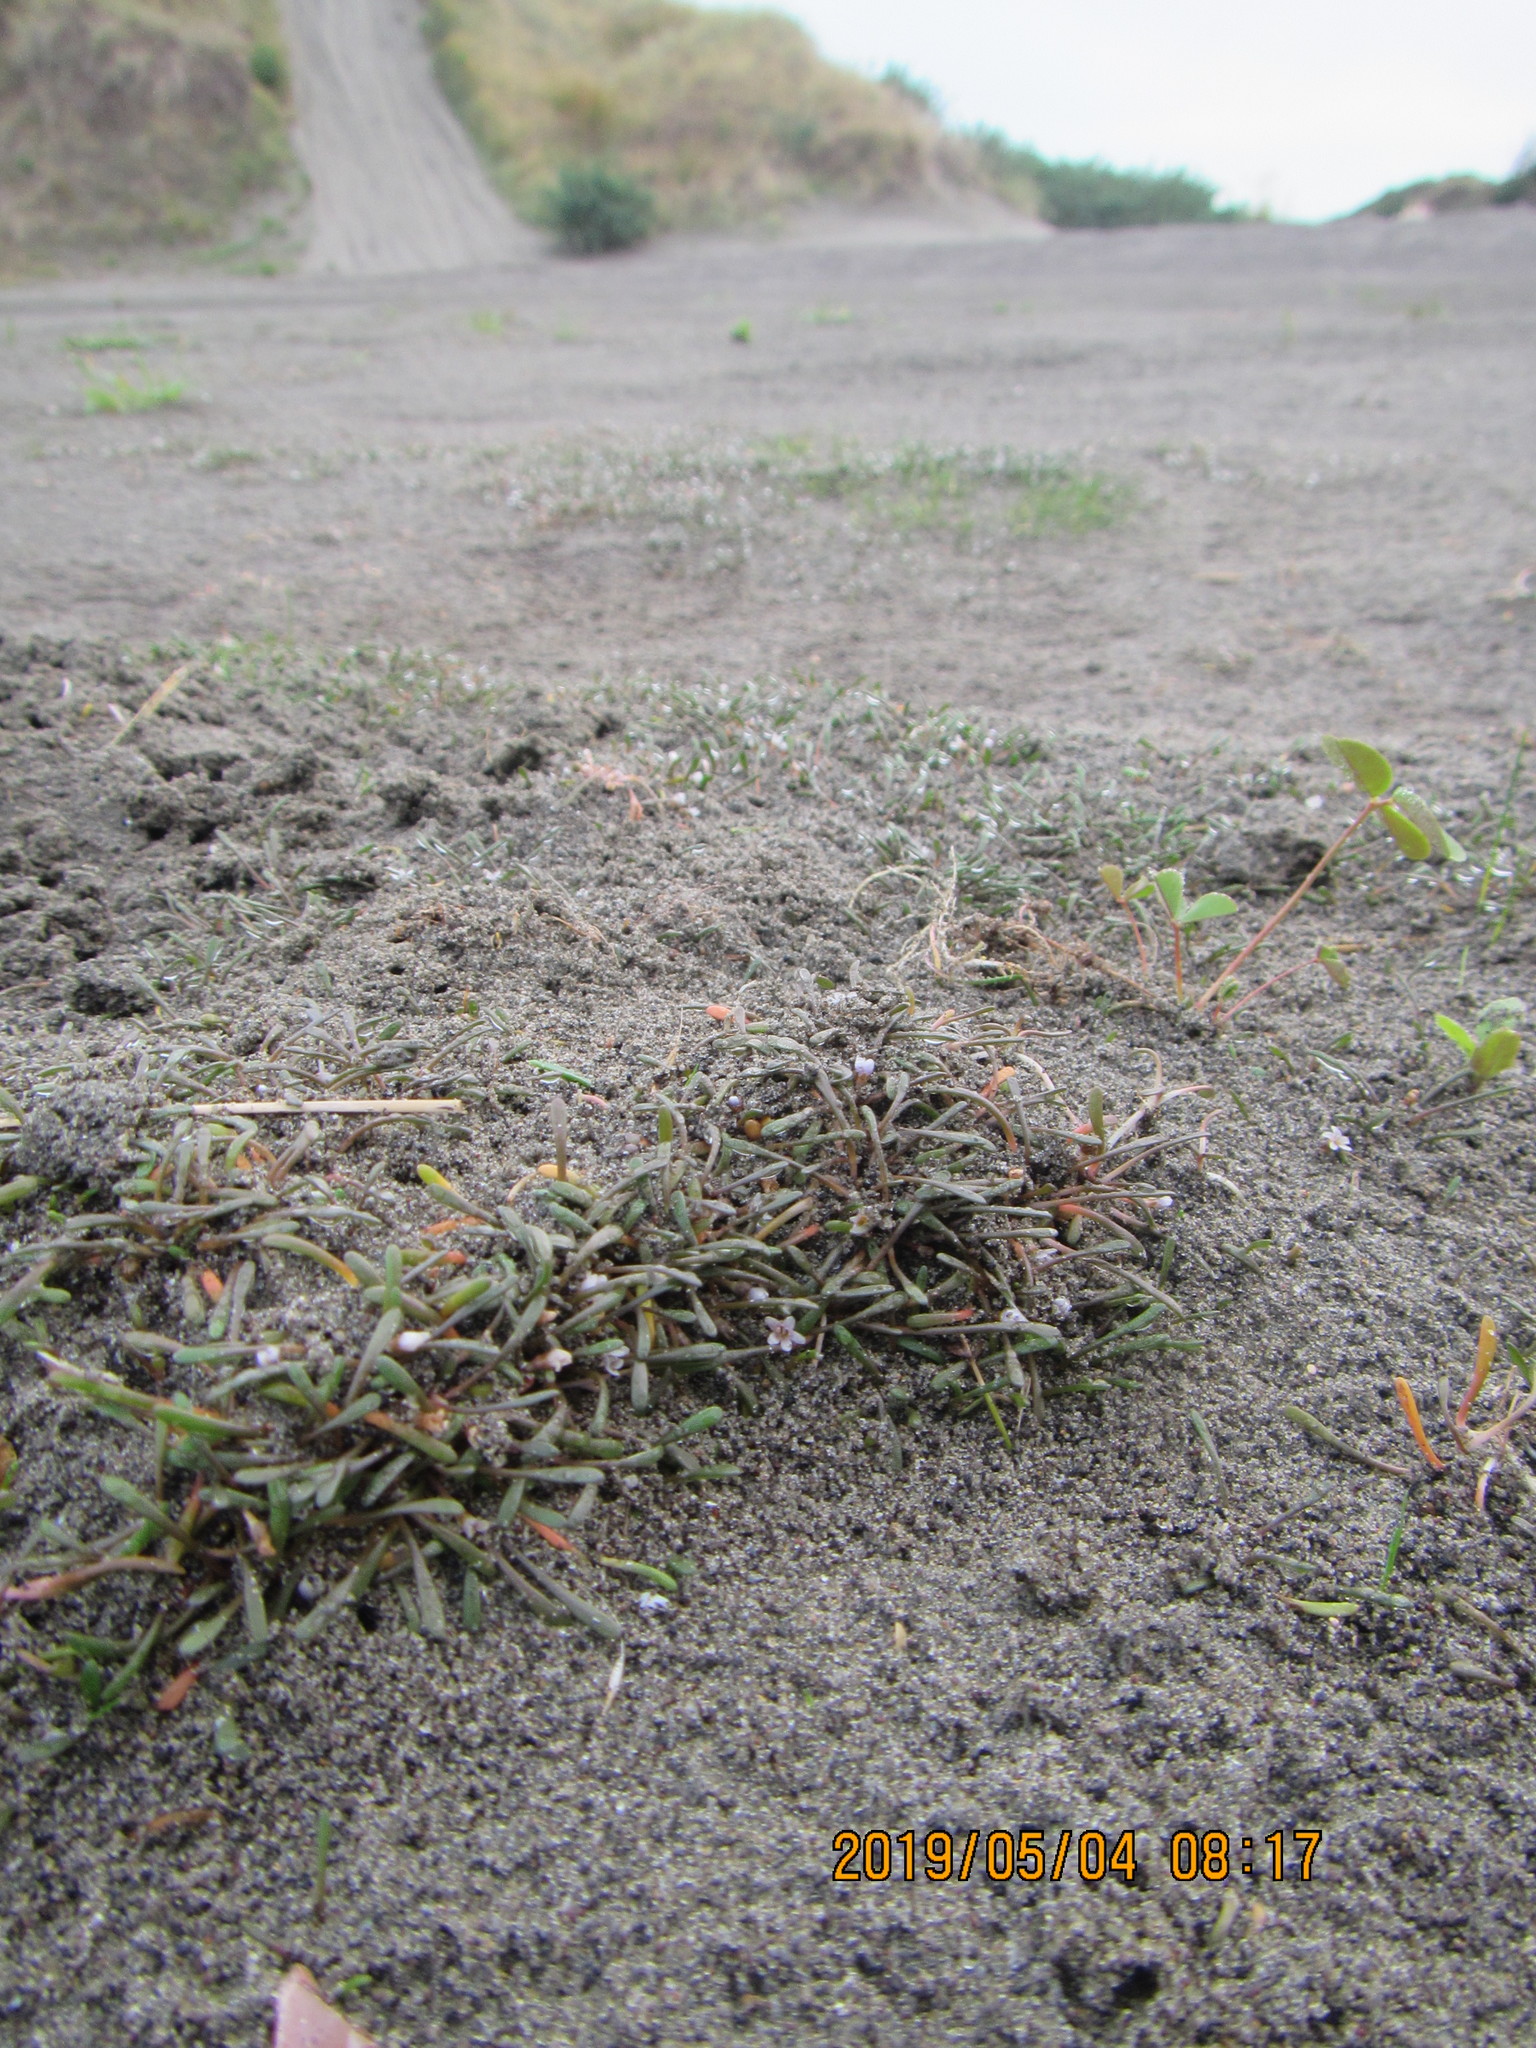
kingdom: Plantae
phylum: Tracheophyta
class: Magnoliopsida
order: Lamiales
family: Scrophulariaceae
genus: Limosella
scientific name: Limosella australis
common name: Welsh mudwort
